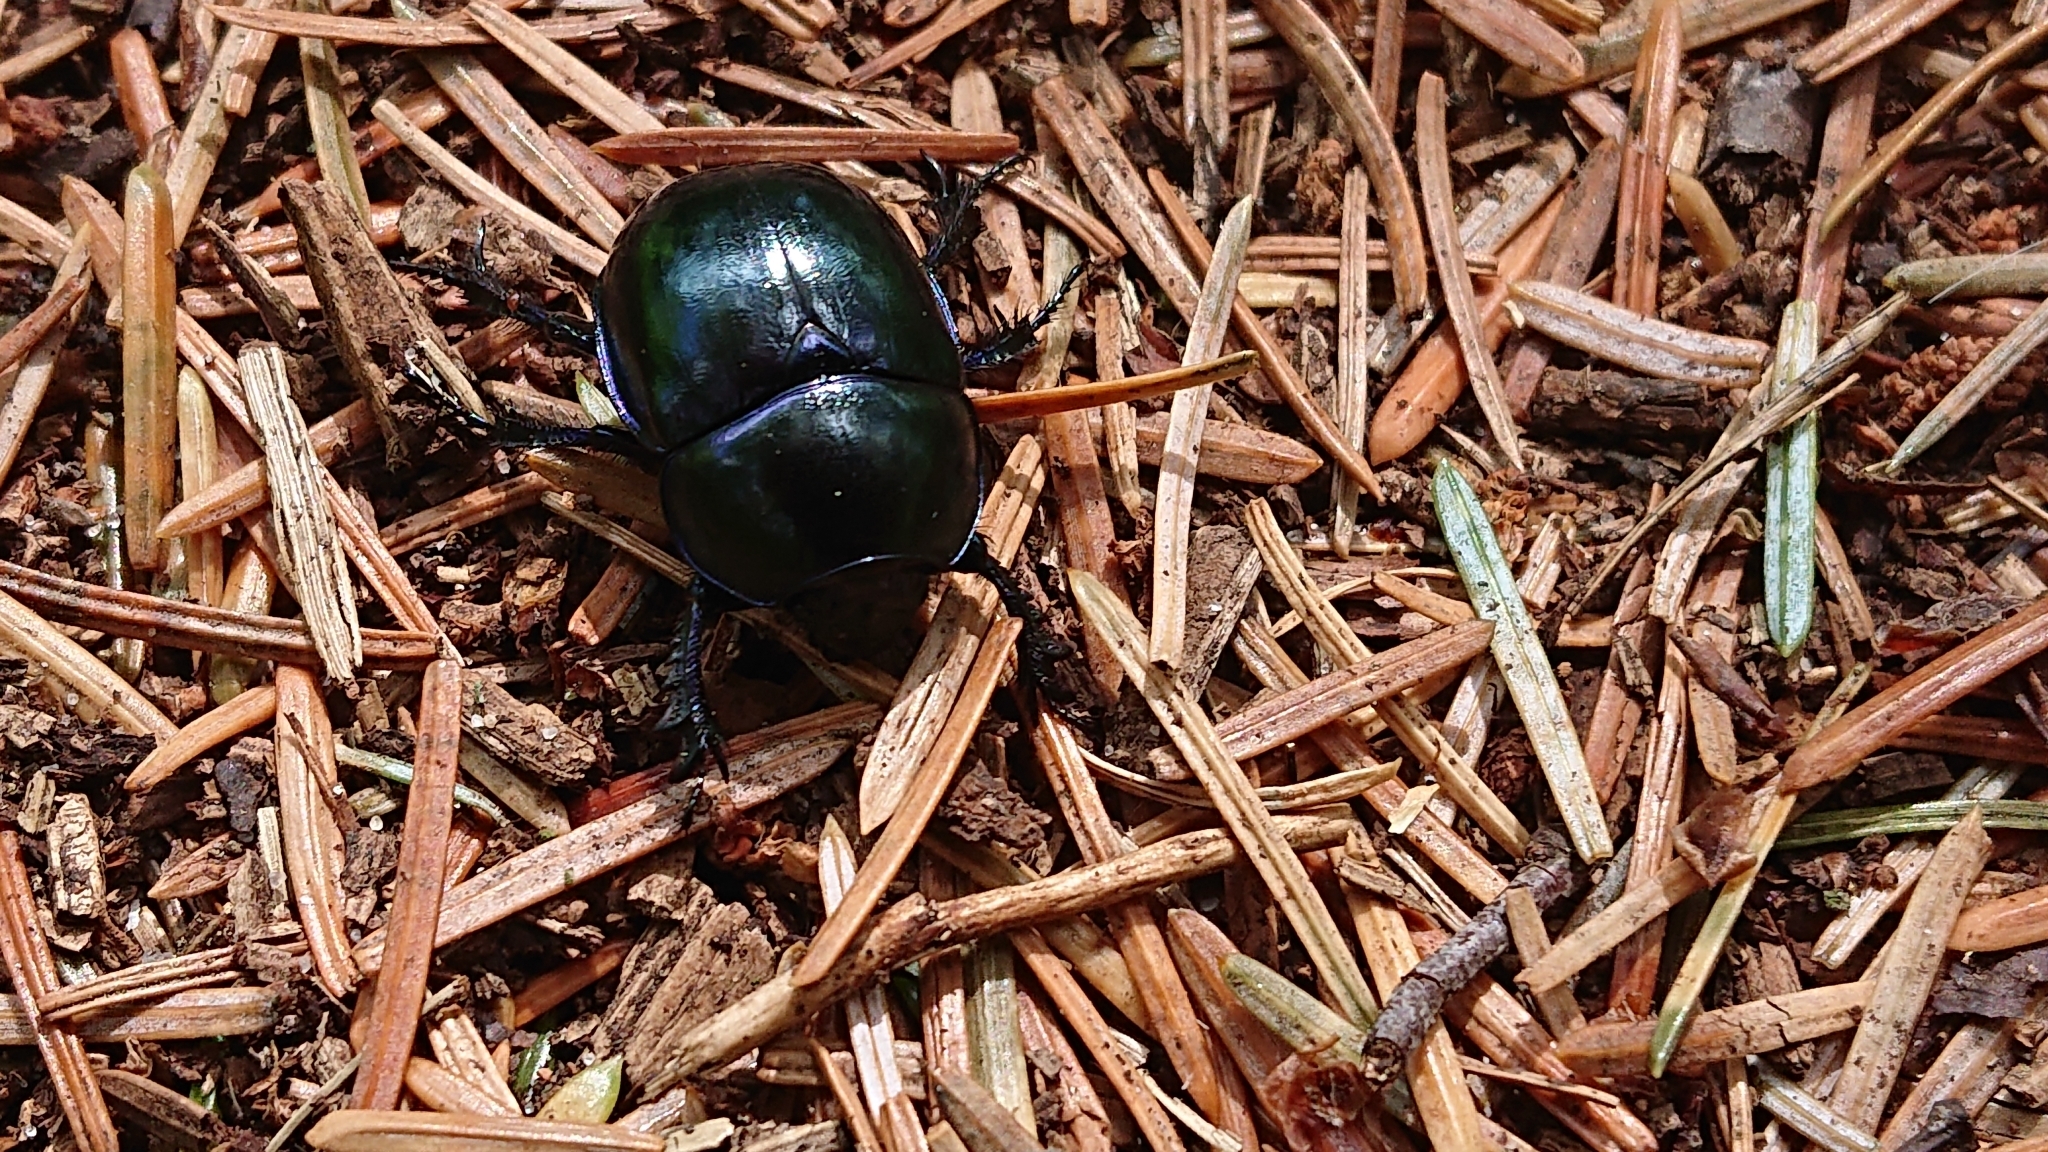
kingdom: Animalia
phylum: Arthropoda
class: Insecta
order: Coleoptera
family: Geotrupidae
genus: Trypocopris
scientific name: Trypocopris vernalis
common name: Spring dumbledor
